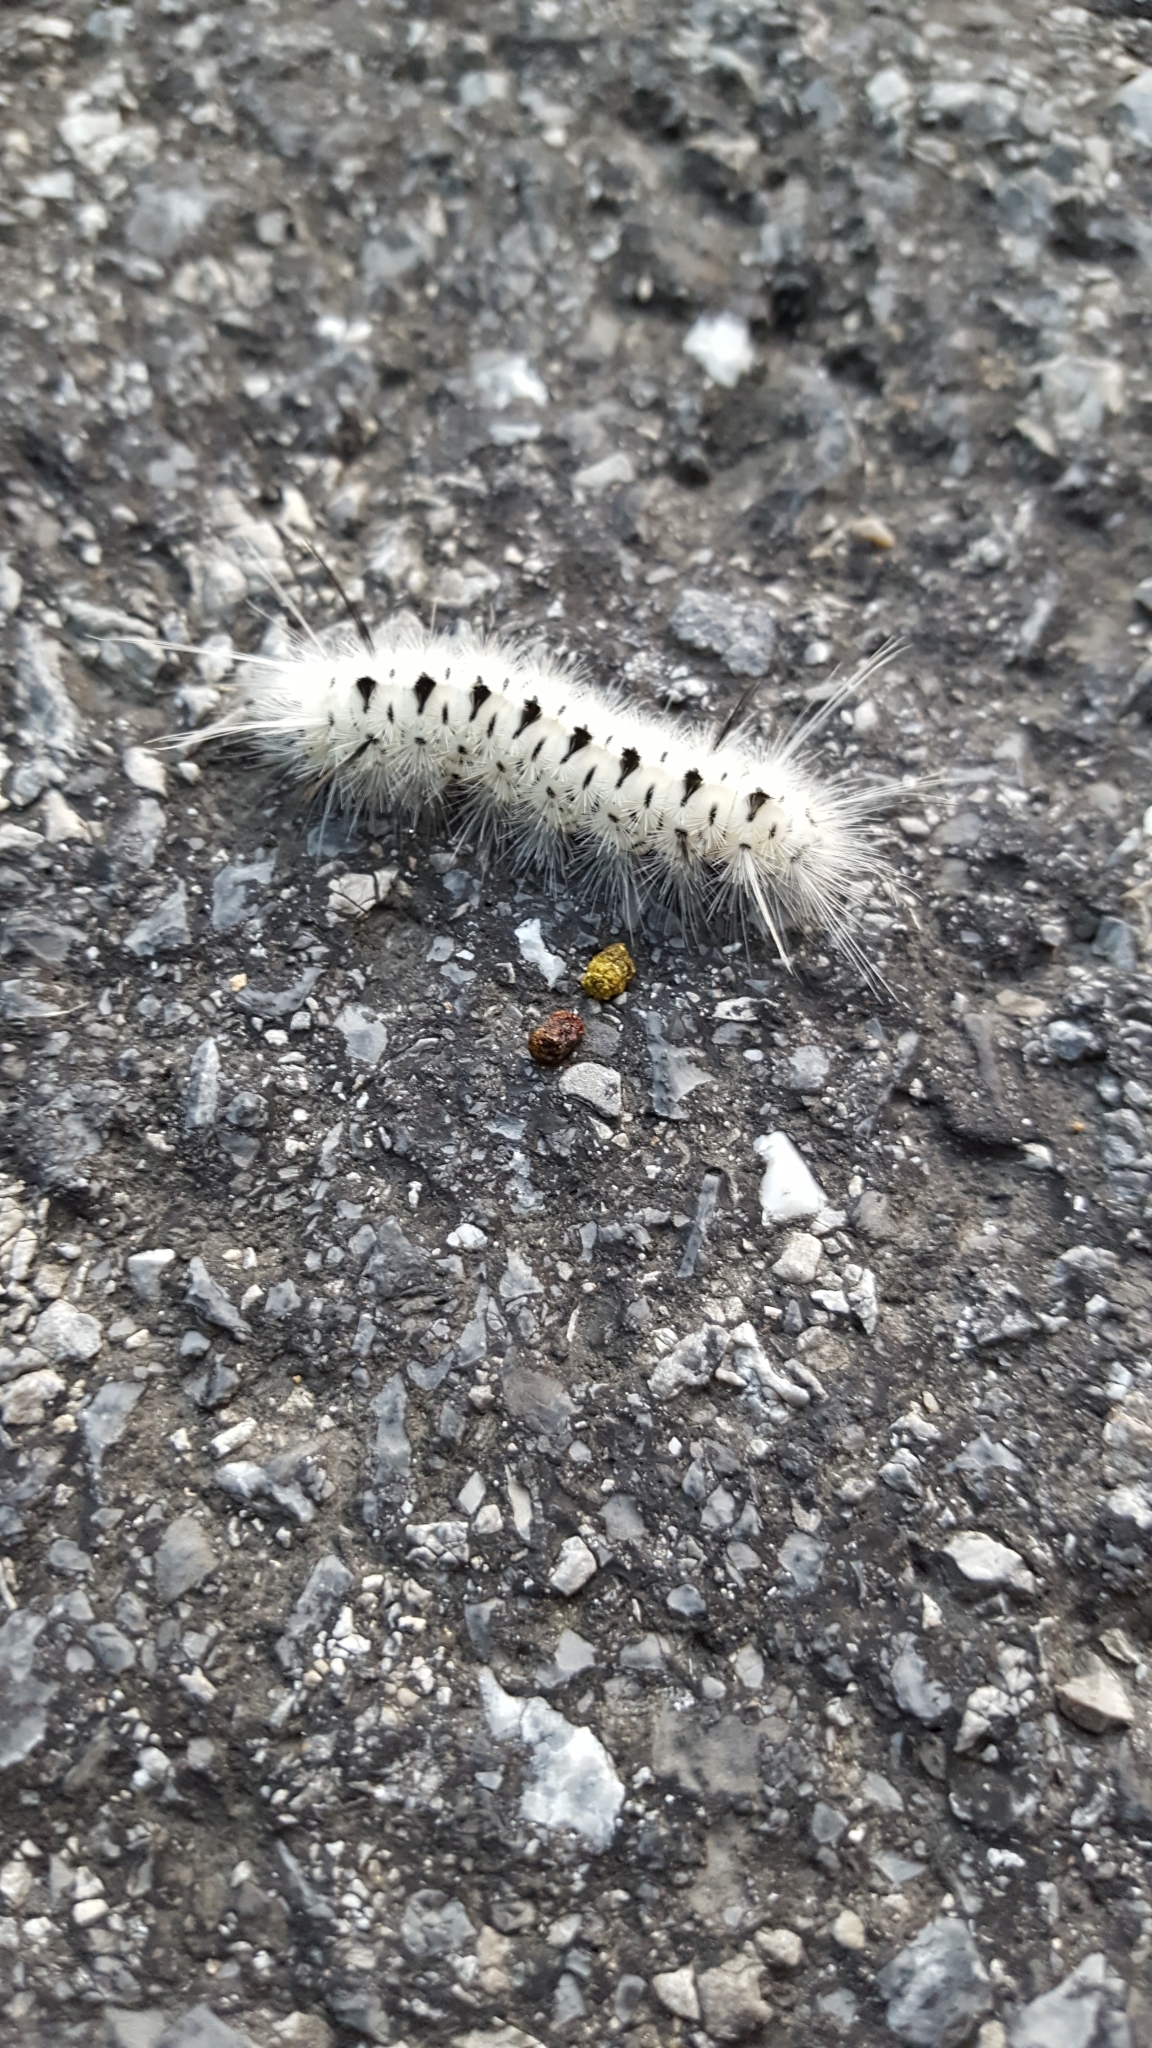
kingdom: Animalia
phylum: Arthropoda
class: Insecta
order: Lepidoptera
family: Erebidae
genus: Lophocampa
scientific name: Lophocampa caryae
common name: Hickory tussock moth
